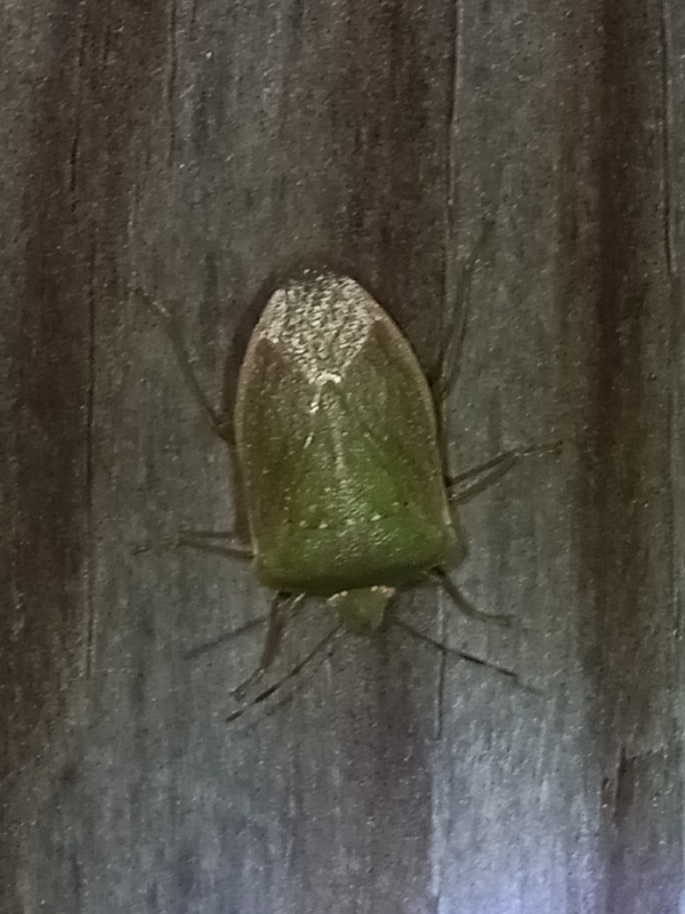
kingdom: Animalia
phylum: Arthropoda
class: Insecta
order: Hemiptera
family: Pentatomidae
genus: Nezara
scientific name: Nezara viridula
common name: Southern green stink bug
